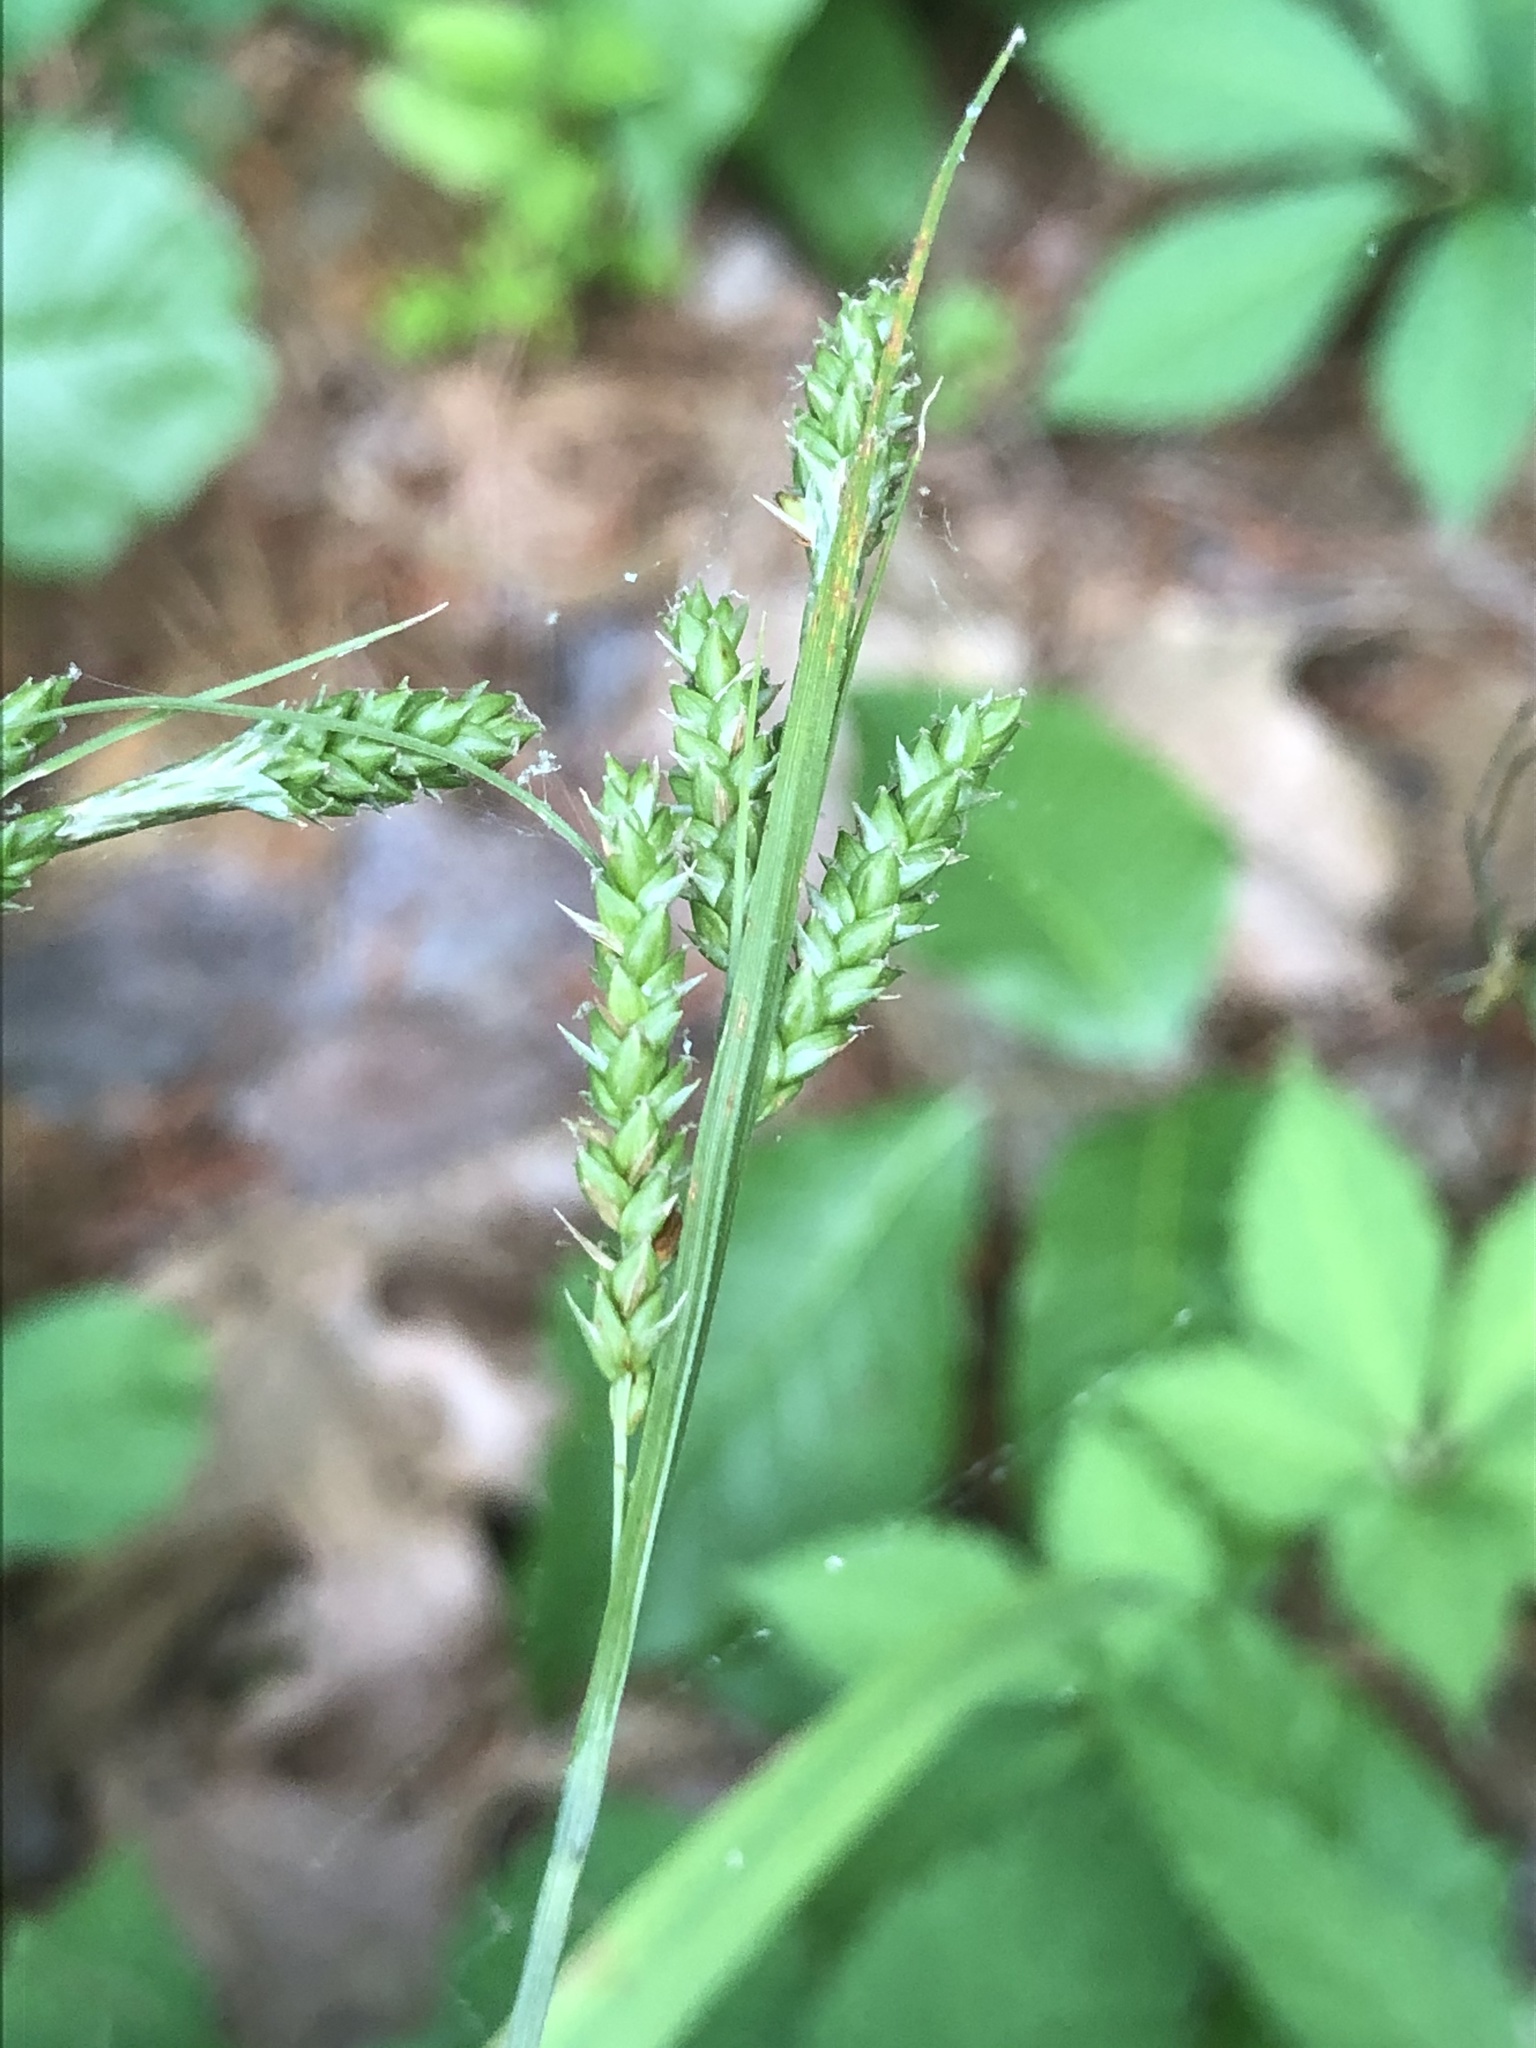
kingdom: Plantae
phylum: Tracheophyta
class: Liliopsida
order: Poales
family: Cyperaceae
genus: Carex
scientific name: Carex oxylepis
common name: Sharpscale sedge
